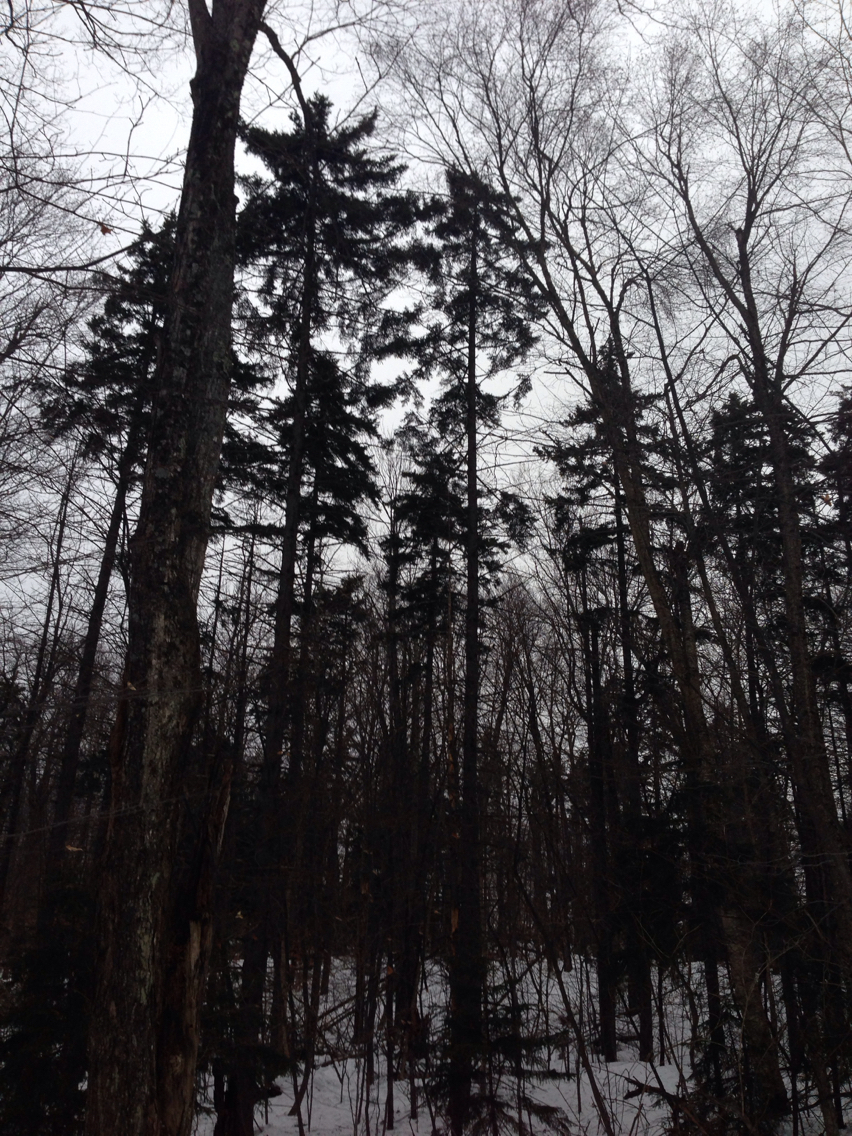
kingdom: Plantae
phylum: Tracheophyta
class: Pinopsida
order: Pinales
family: Pinaceae
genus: Picea
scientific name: Picea rubens
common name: Red spruce
